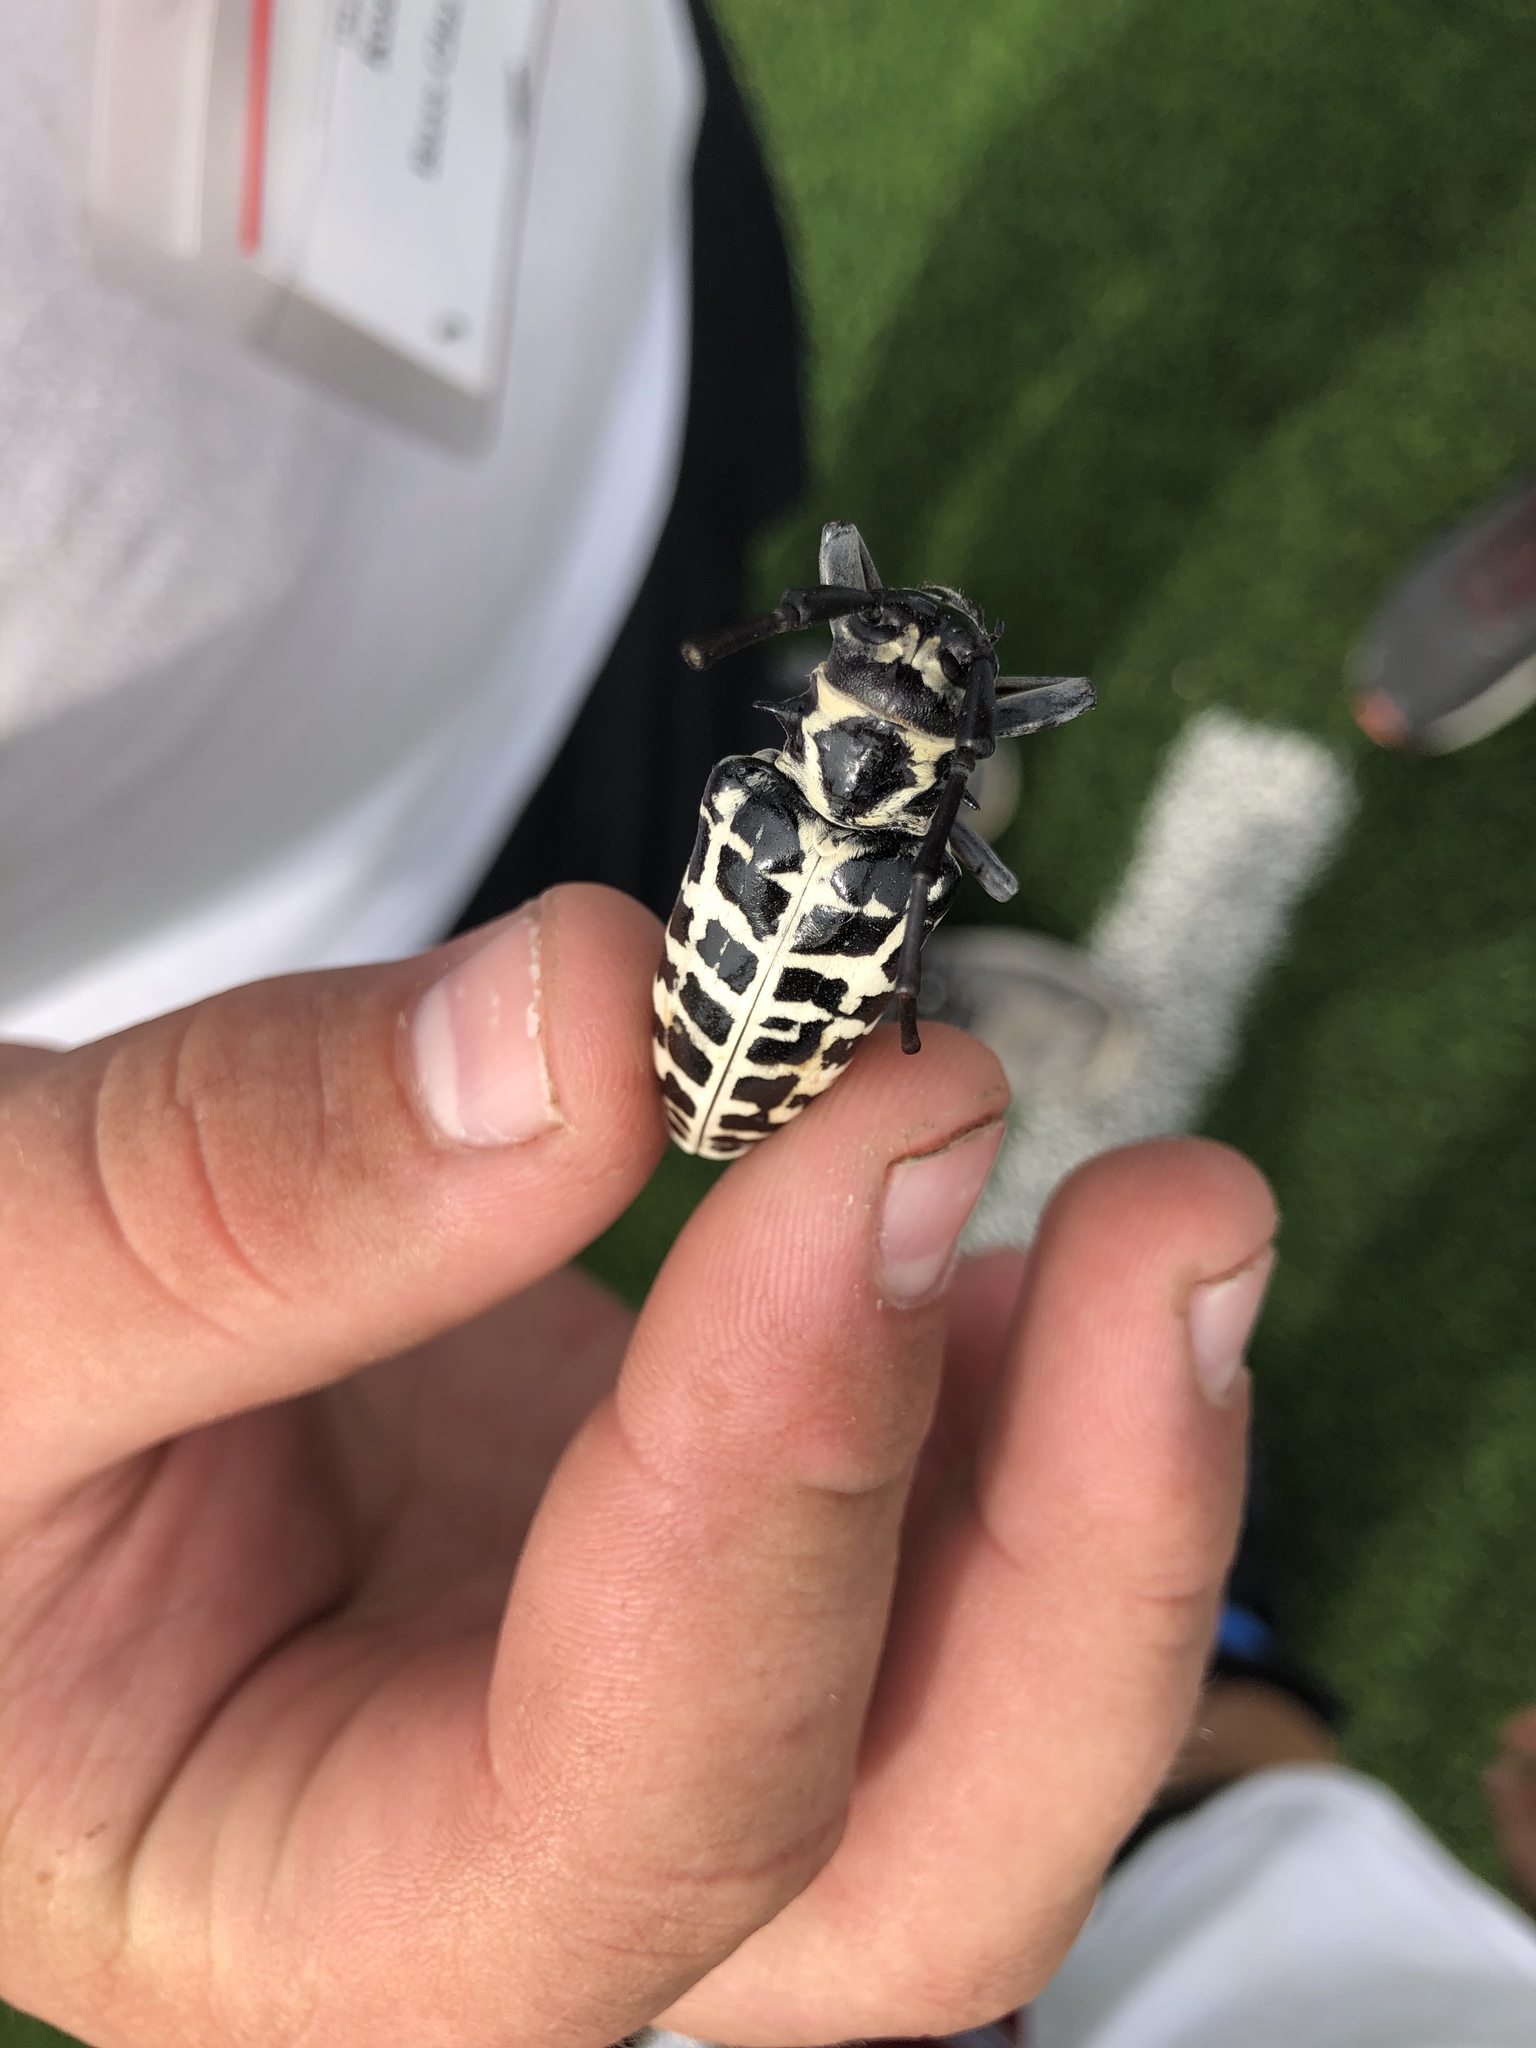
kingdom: Animalia
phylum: Arthropoda
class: Insecta
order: Coleoptera
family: Cerambycidae
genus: Plectrodera
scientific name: Plectrodera scalator
